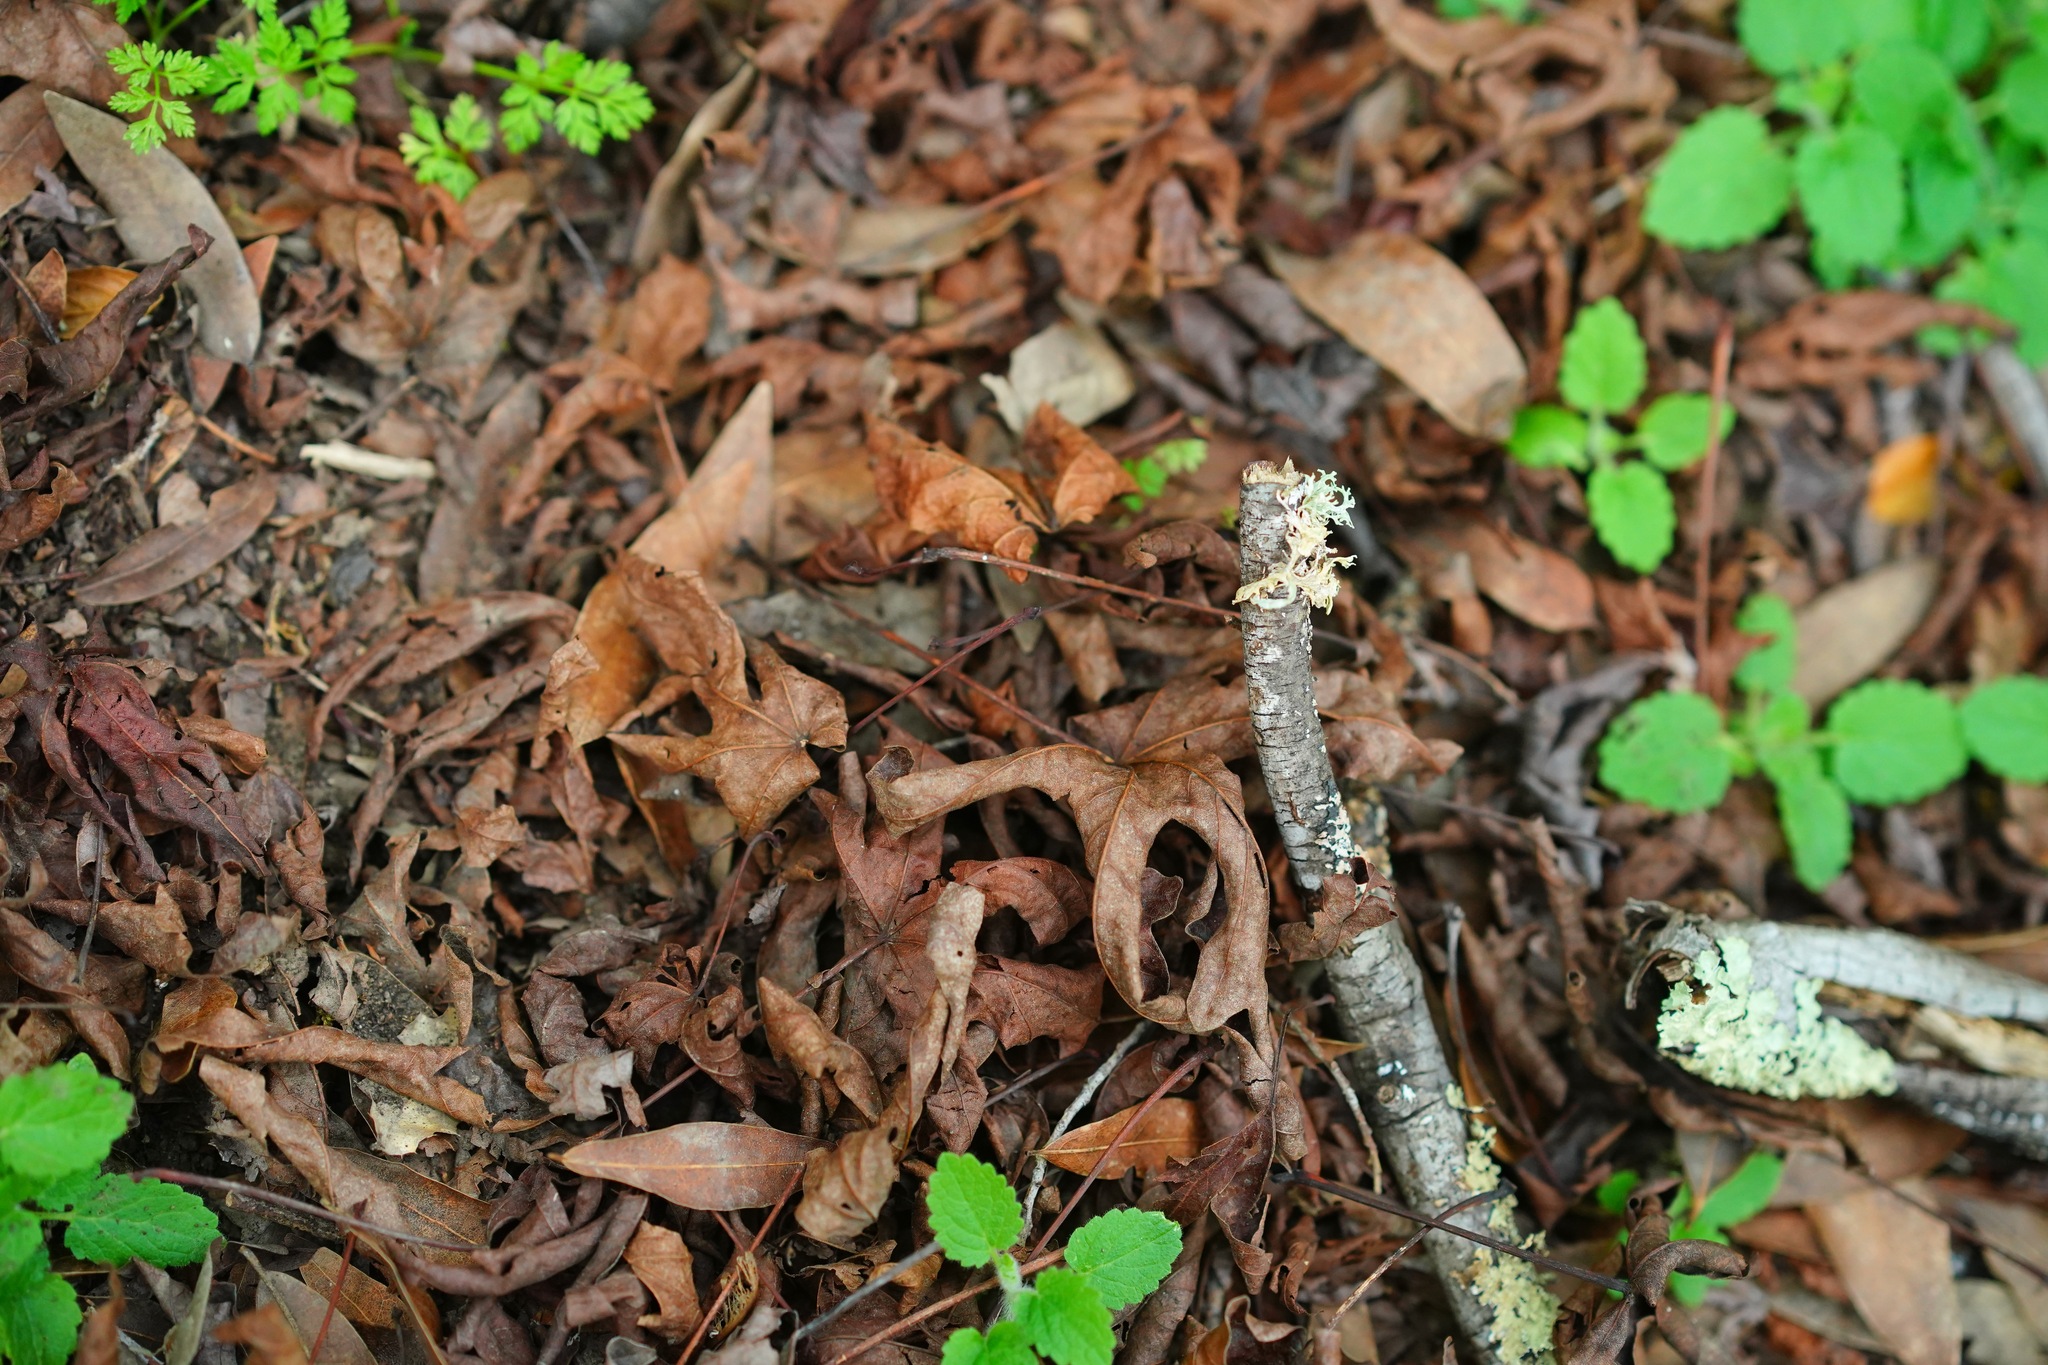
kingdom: Plantae
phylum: Tracheophyta
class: Magnoliopsida
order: Sapindales
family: Sapindaceae
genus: Acer
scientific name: Acer macrophyllum
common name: Oregon maple
